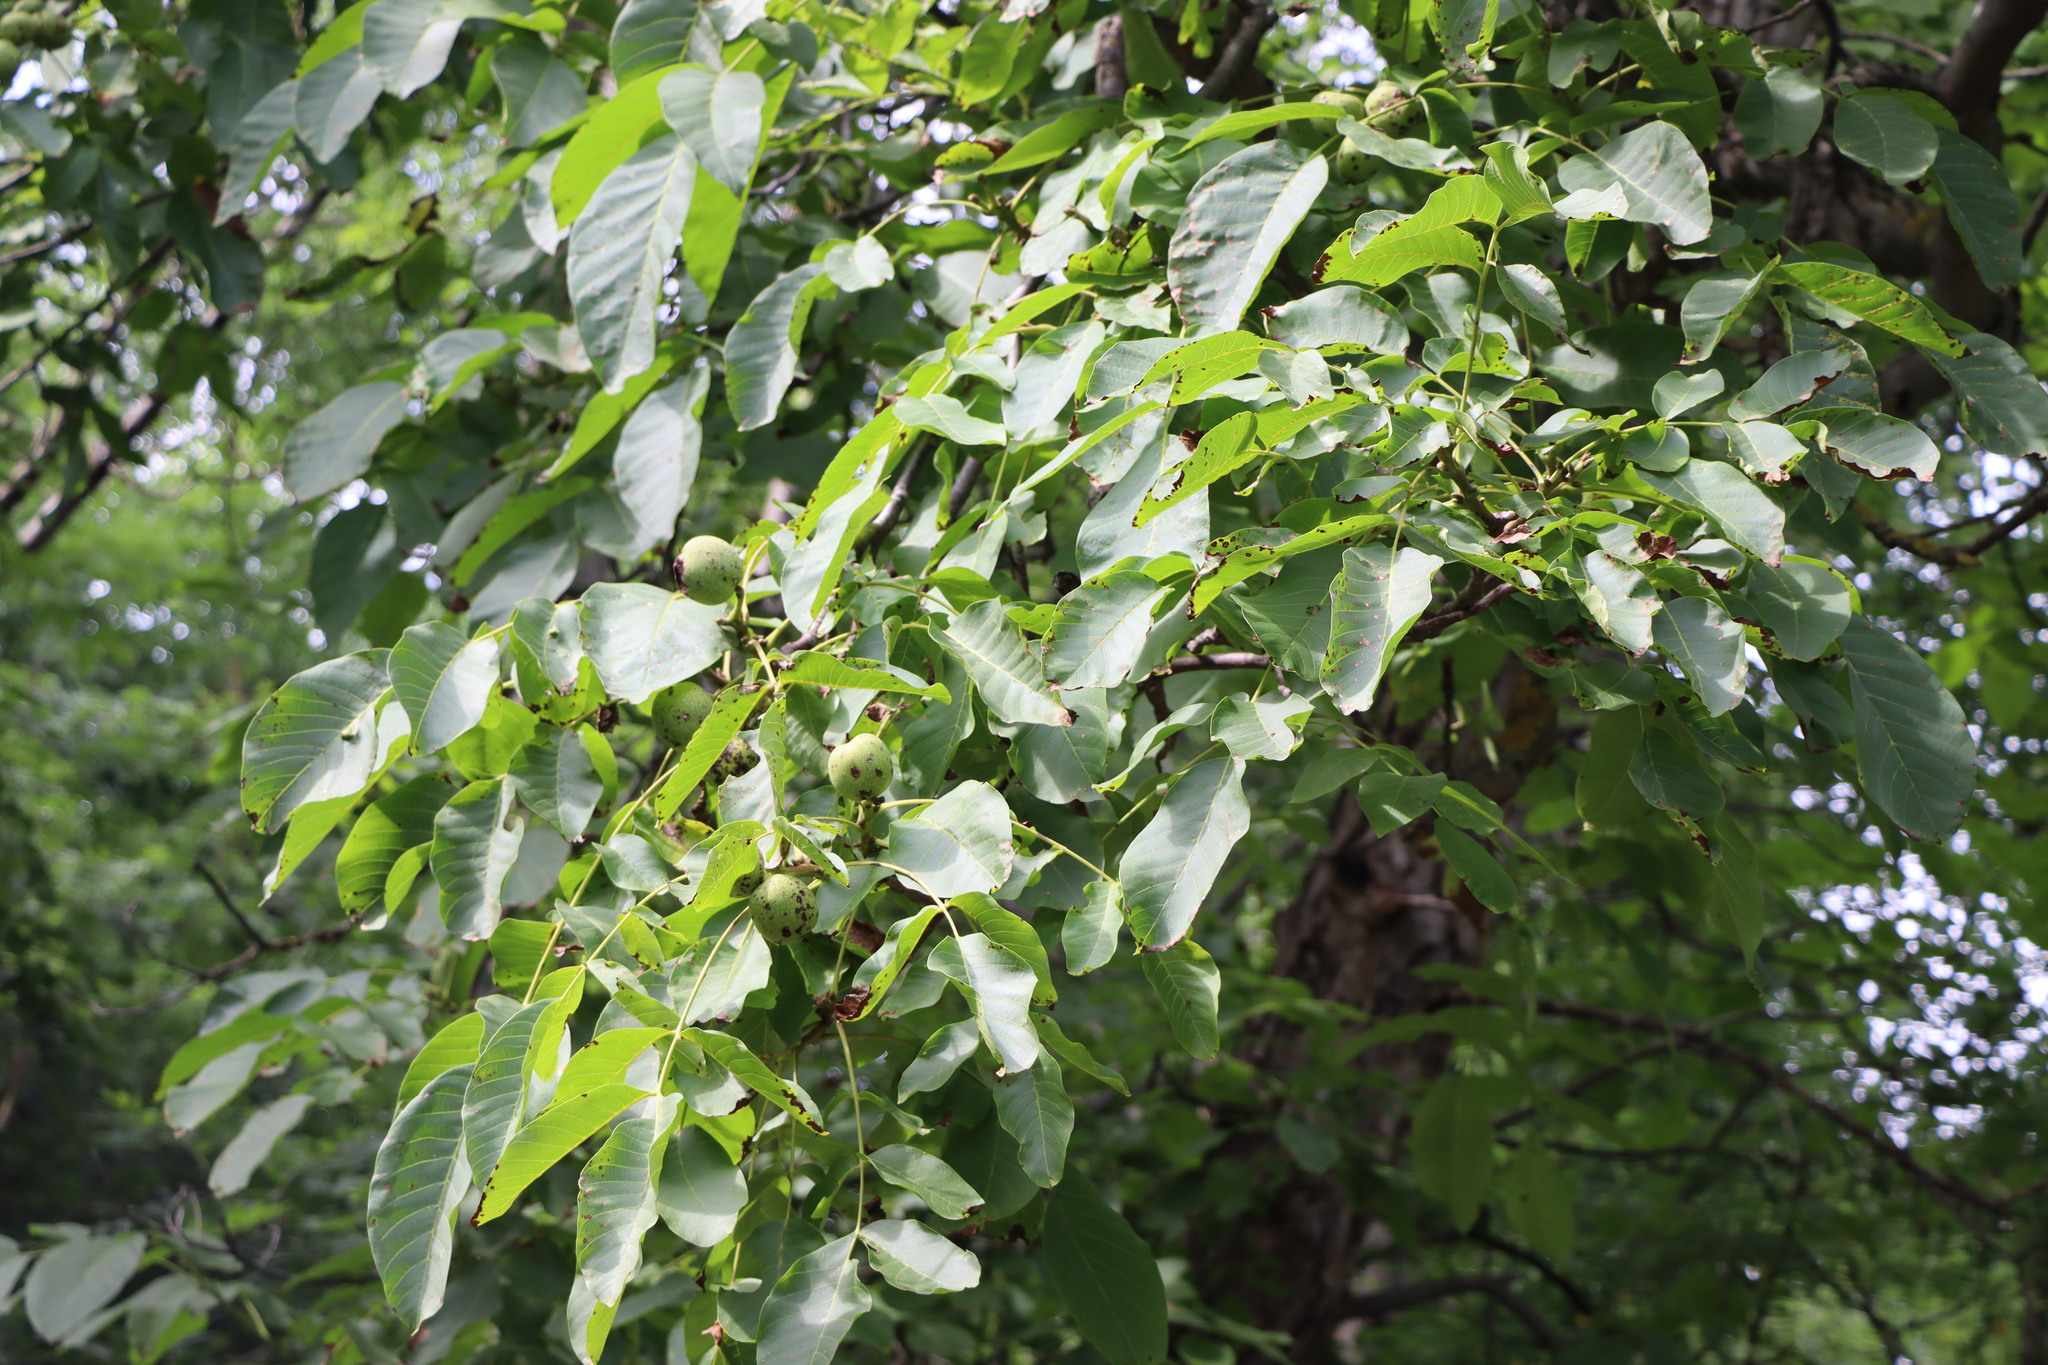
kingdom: Plantae
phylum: Tracheophyta
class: Magnoliopsida
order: Fagales
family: Juglandaceae
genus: Juglans
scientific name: Juglans regia
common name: Walnut
